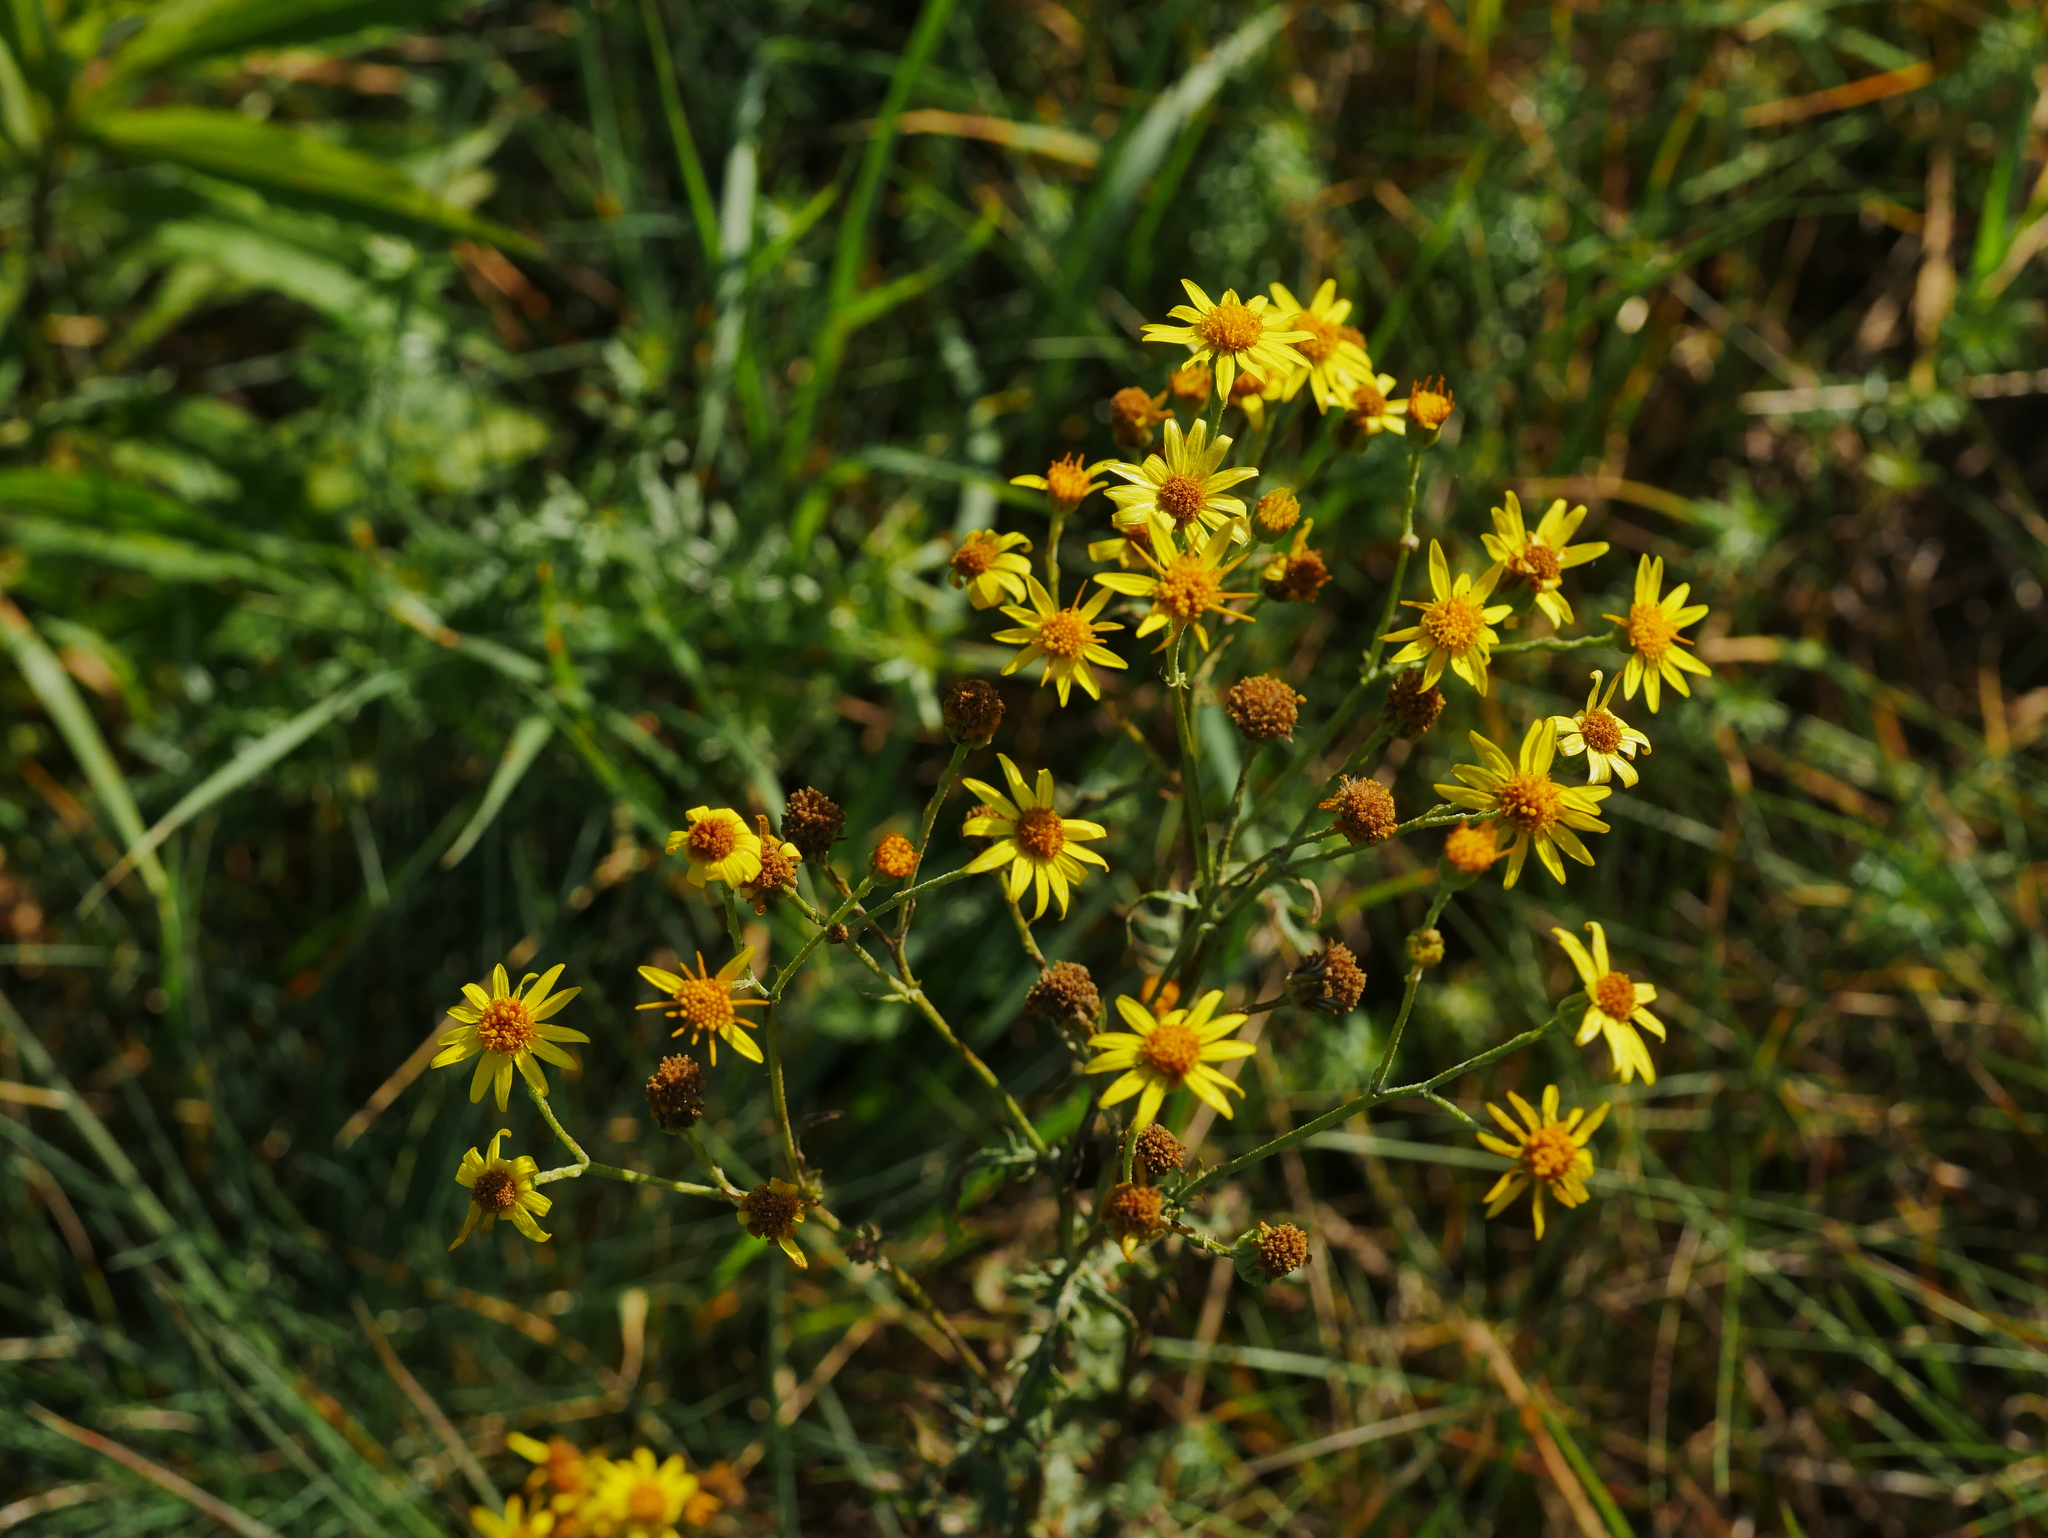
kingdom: Plantae
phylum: Tracheophyta
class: Magnoliopsida
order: Asterales
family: Asteraceae
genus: Jacobaea
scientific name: Jacobaea vulgaris
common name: Stinking willie
